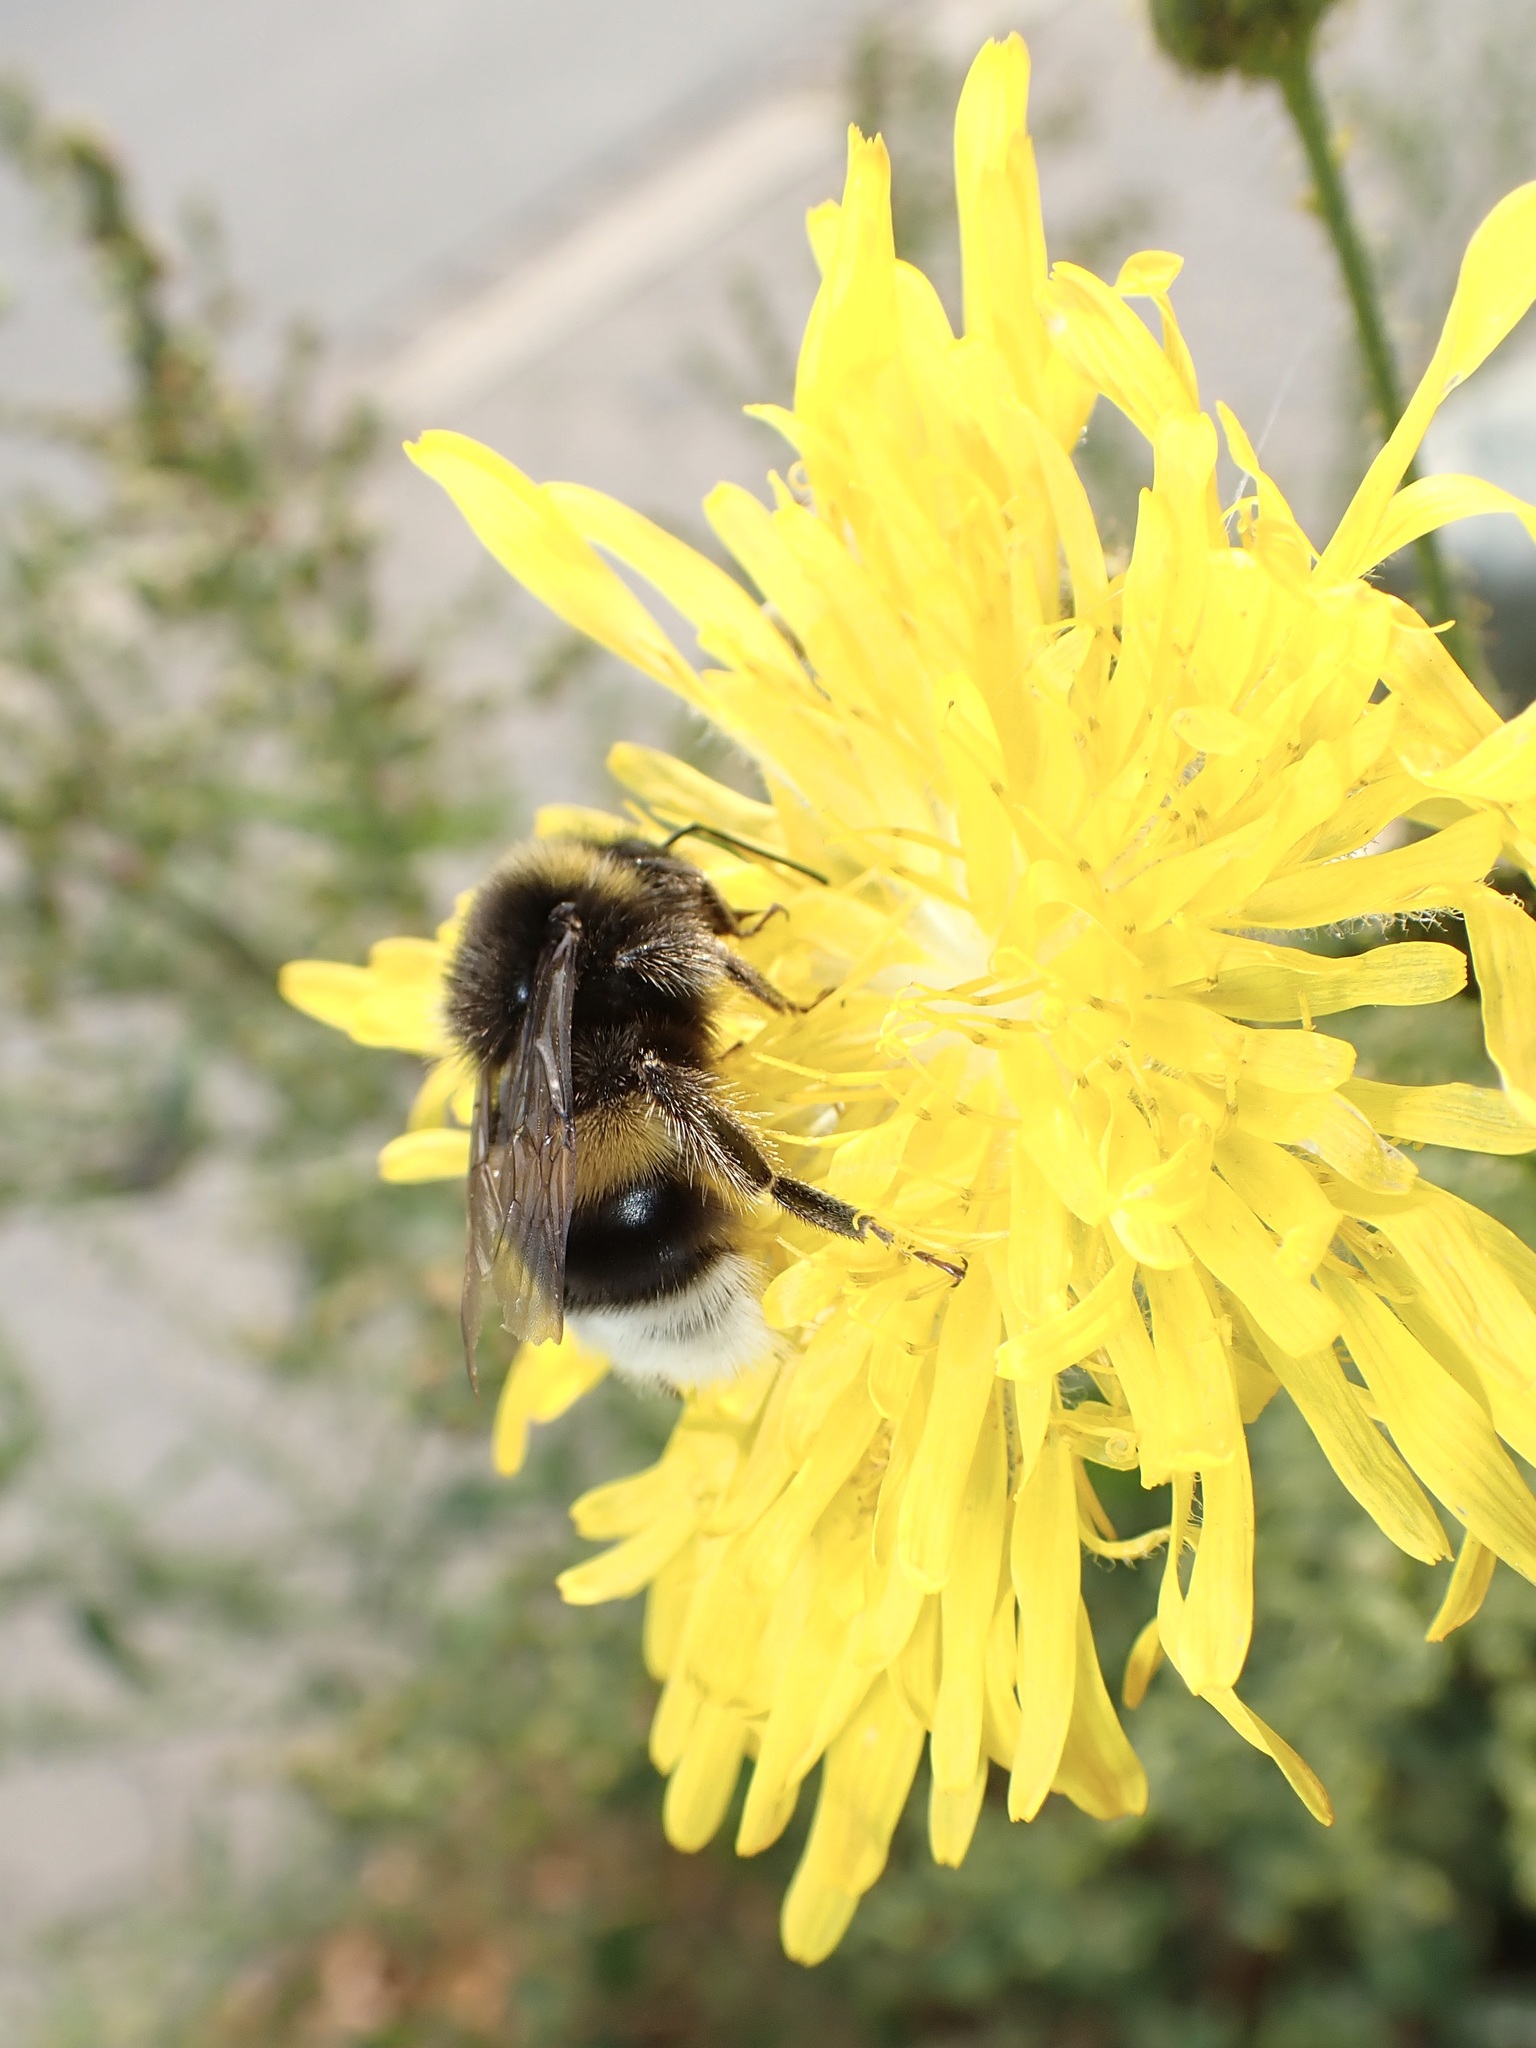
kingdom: Animalia
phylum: Arthropoda
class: Insecta
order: Hymenoptera
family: Apidae
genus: Bombus
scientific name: Bombus terrestris
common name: Buff-tailed bumblebee
